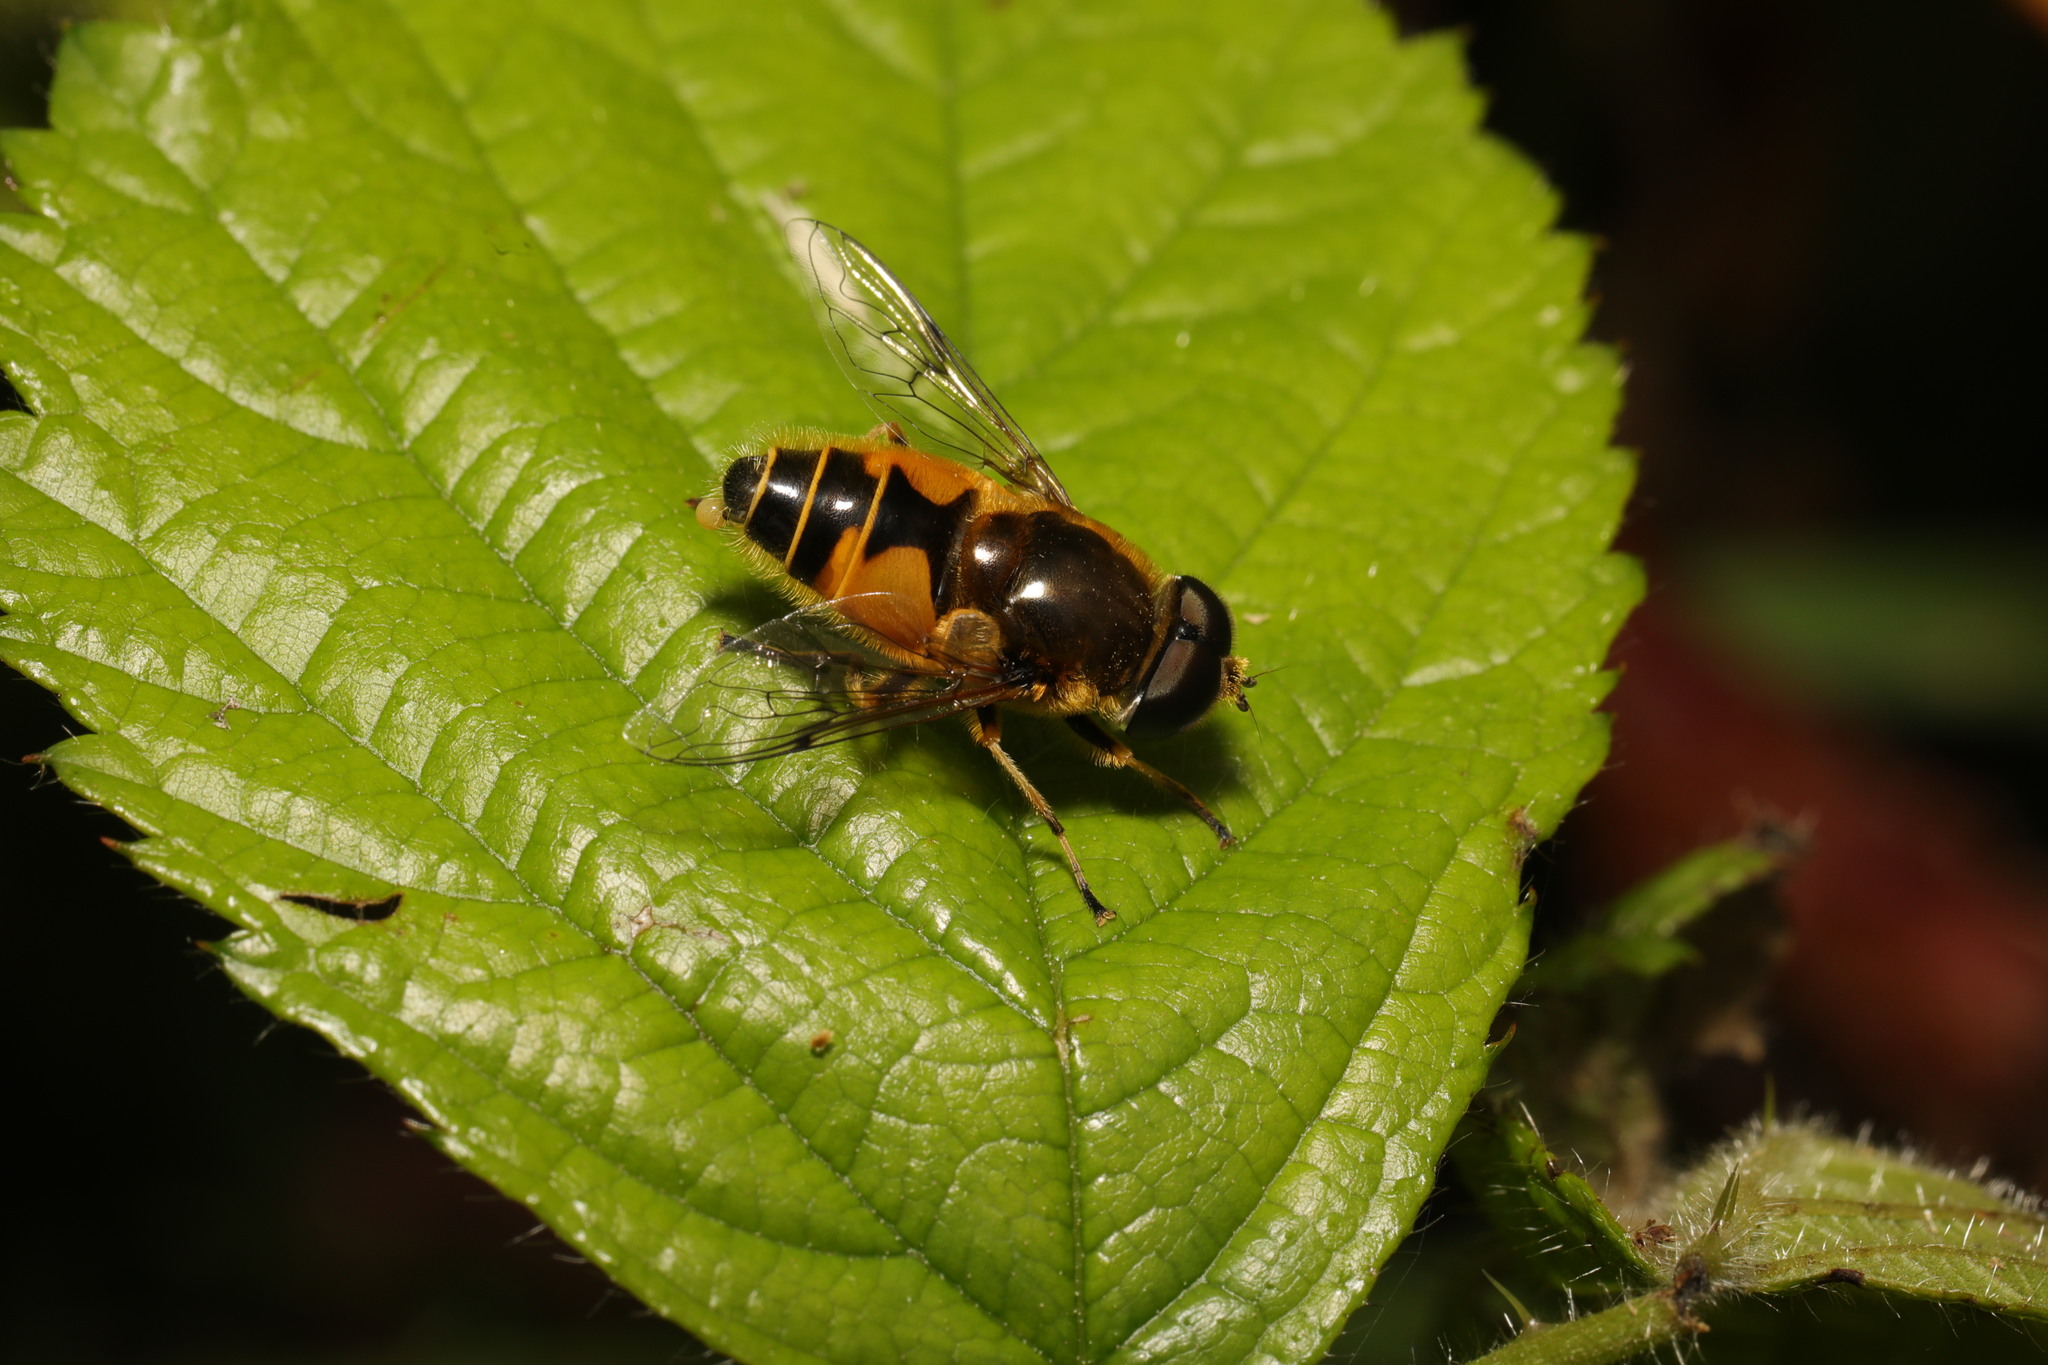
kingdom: Animalia
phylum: Arthropoda
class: Insecta
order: Diptera
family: Syrphidae
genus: Cheilosia
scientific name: Cheilosia morio
